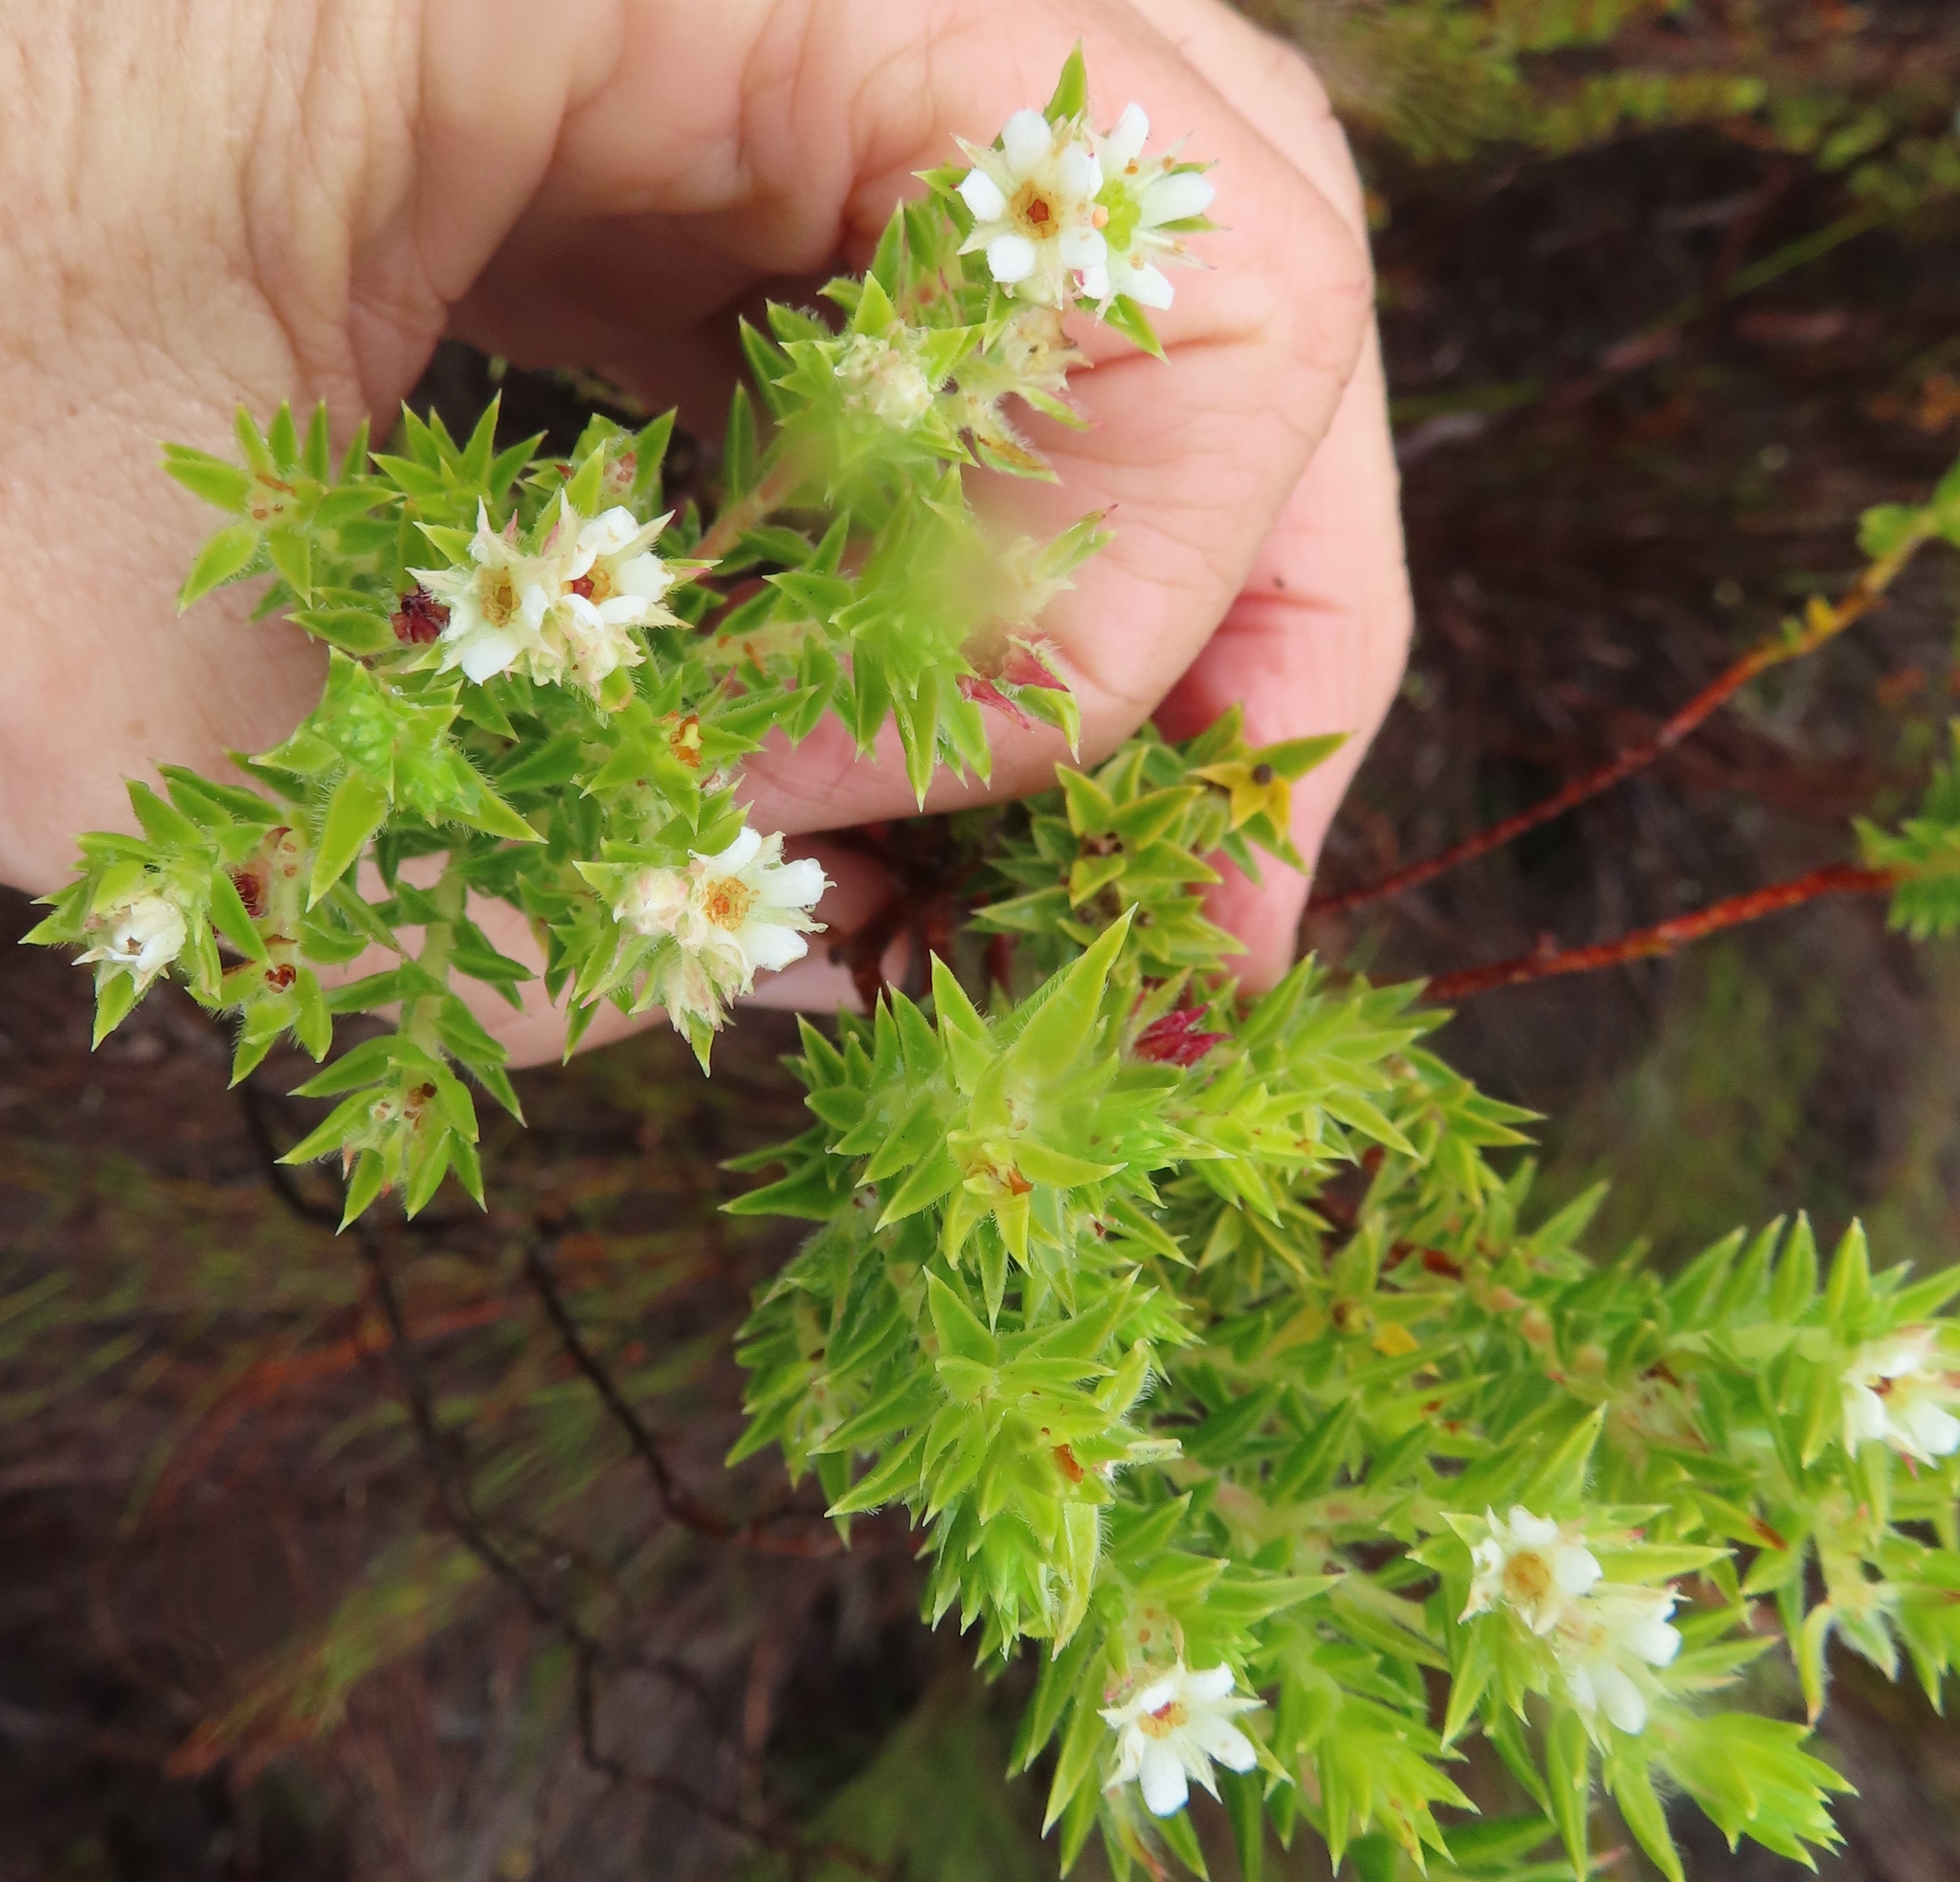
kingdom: Plantae
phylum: Tracheophyta
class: Magnoliopsida
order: Sapindales
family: Rutaceae
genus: Diosma
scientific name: Diosma arenicola
